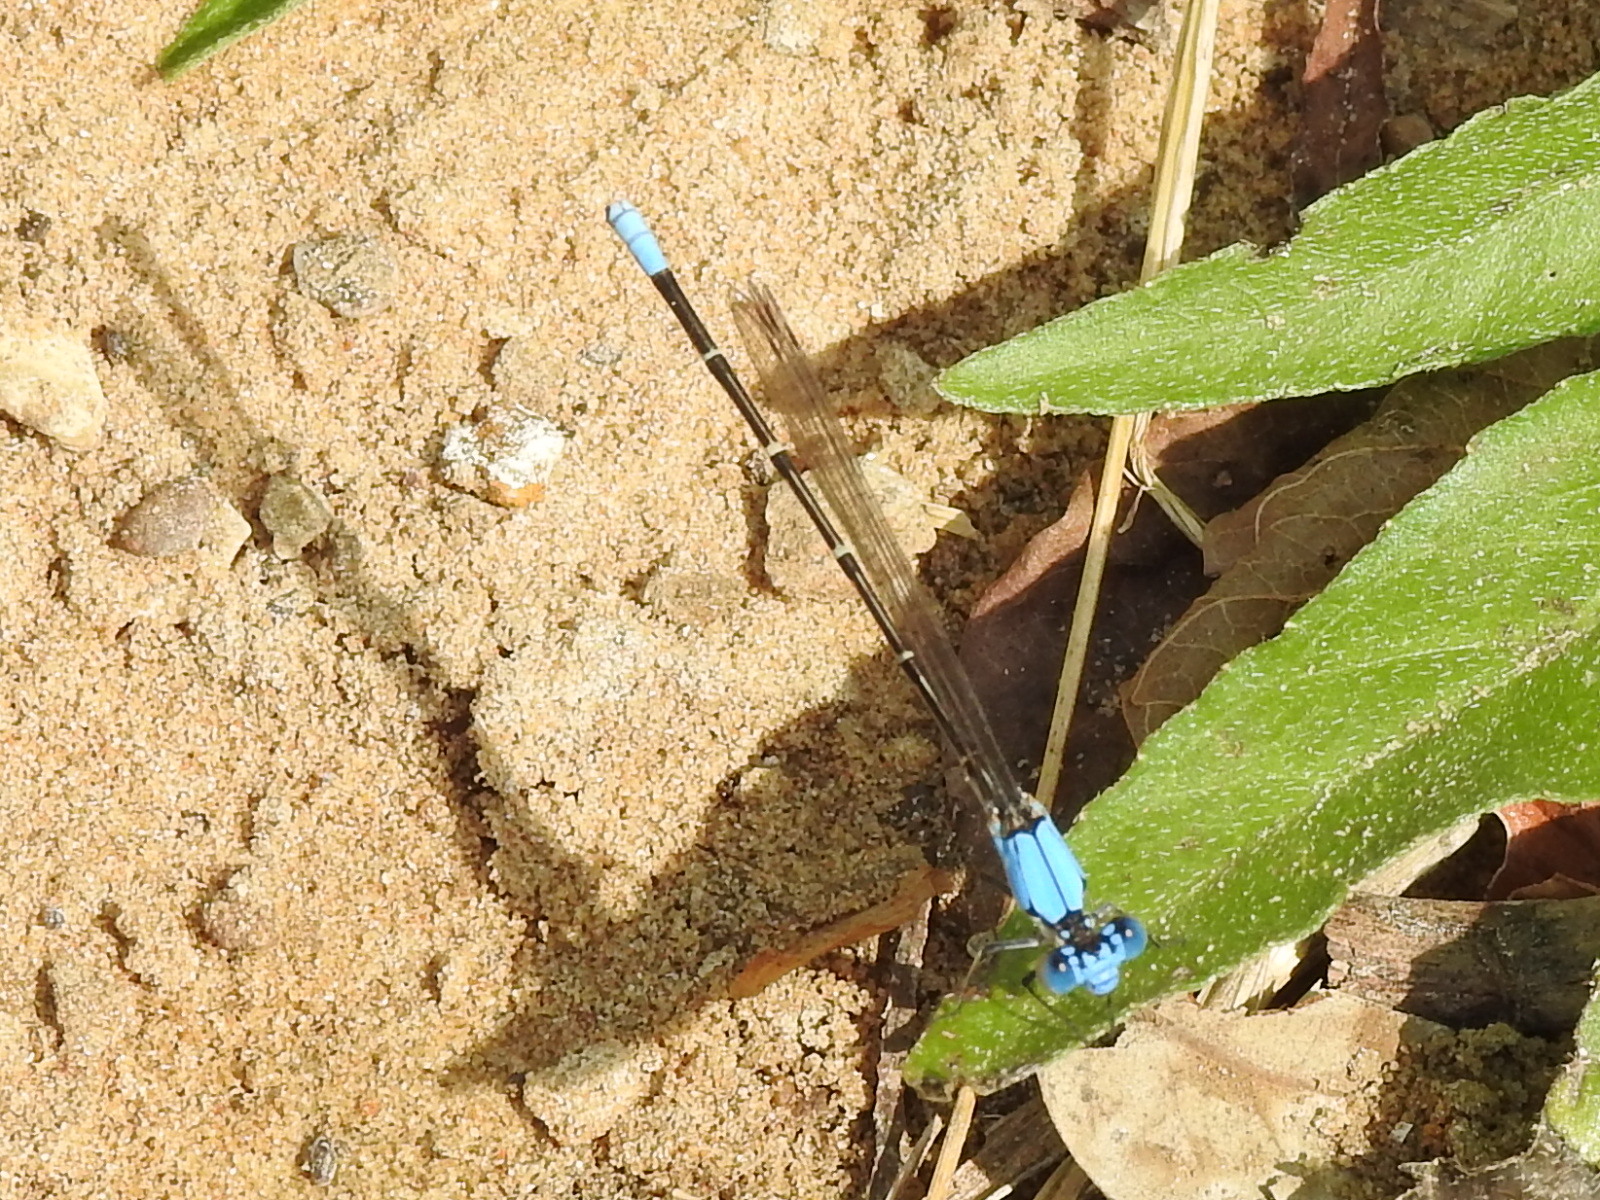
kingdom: Animalia
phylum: Arthropoda
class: Insecta
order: Odonata
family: Coenagrionidae
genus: Argia
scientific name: Argia apicalis
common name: Blue-fronted dancer
